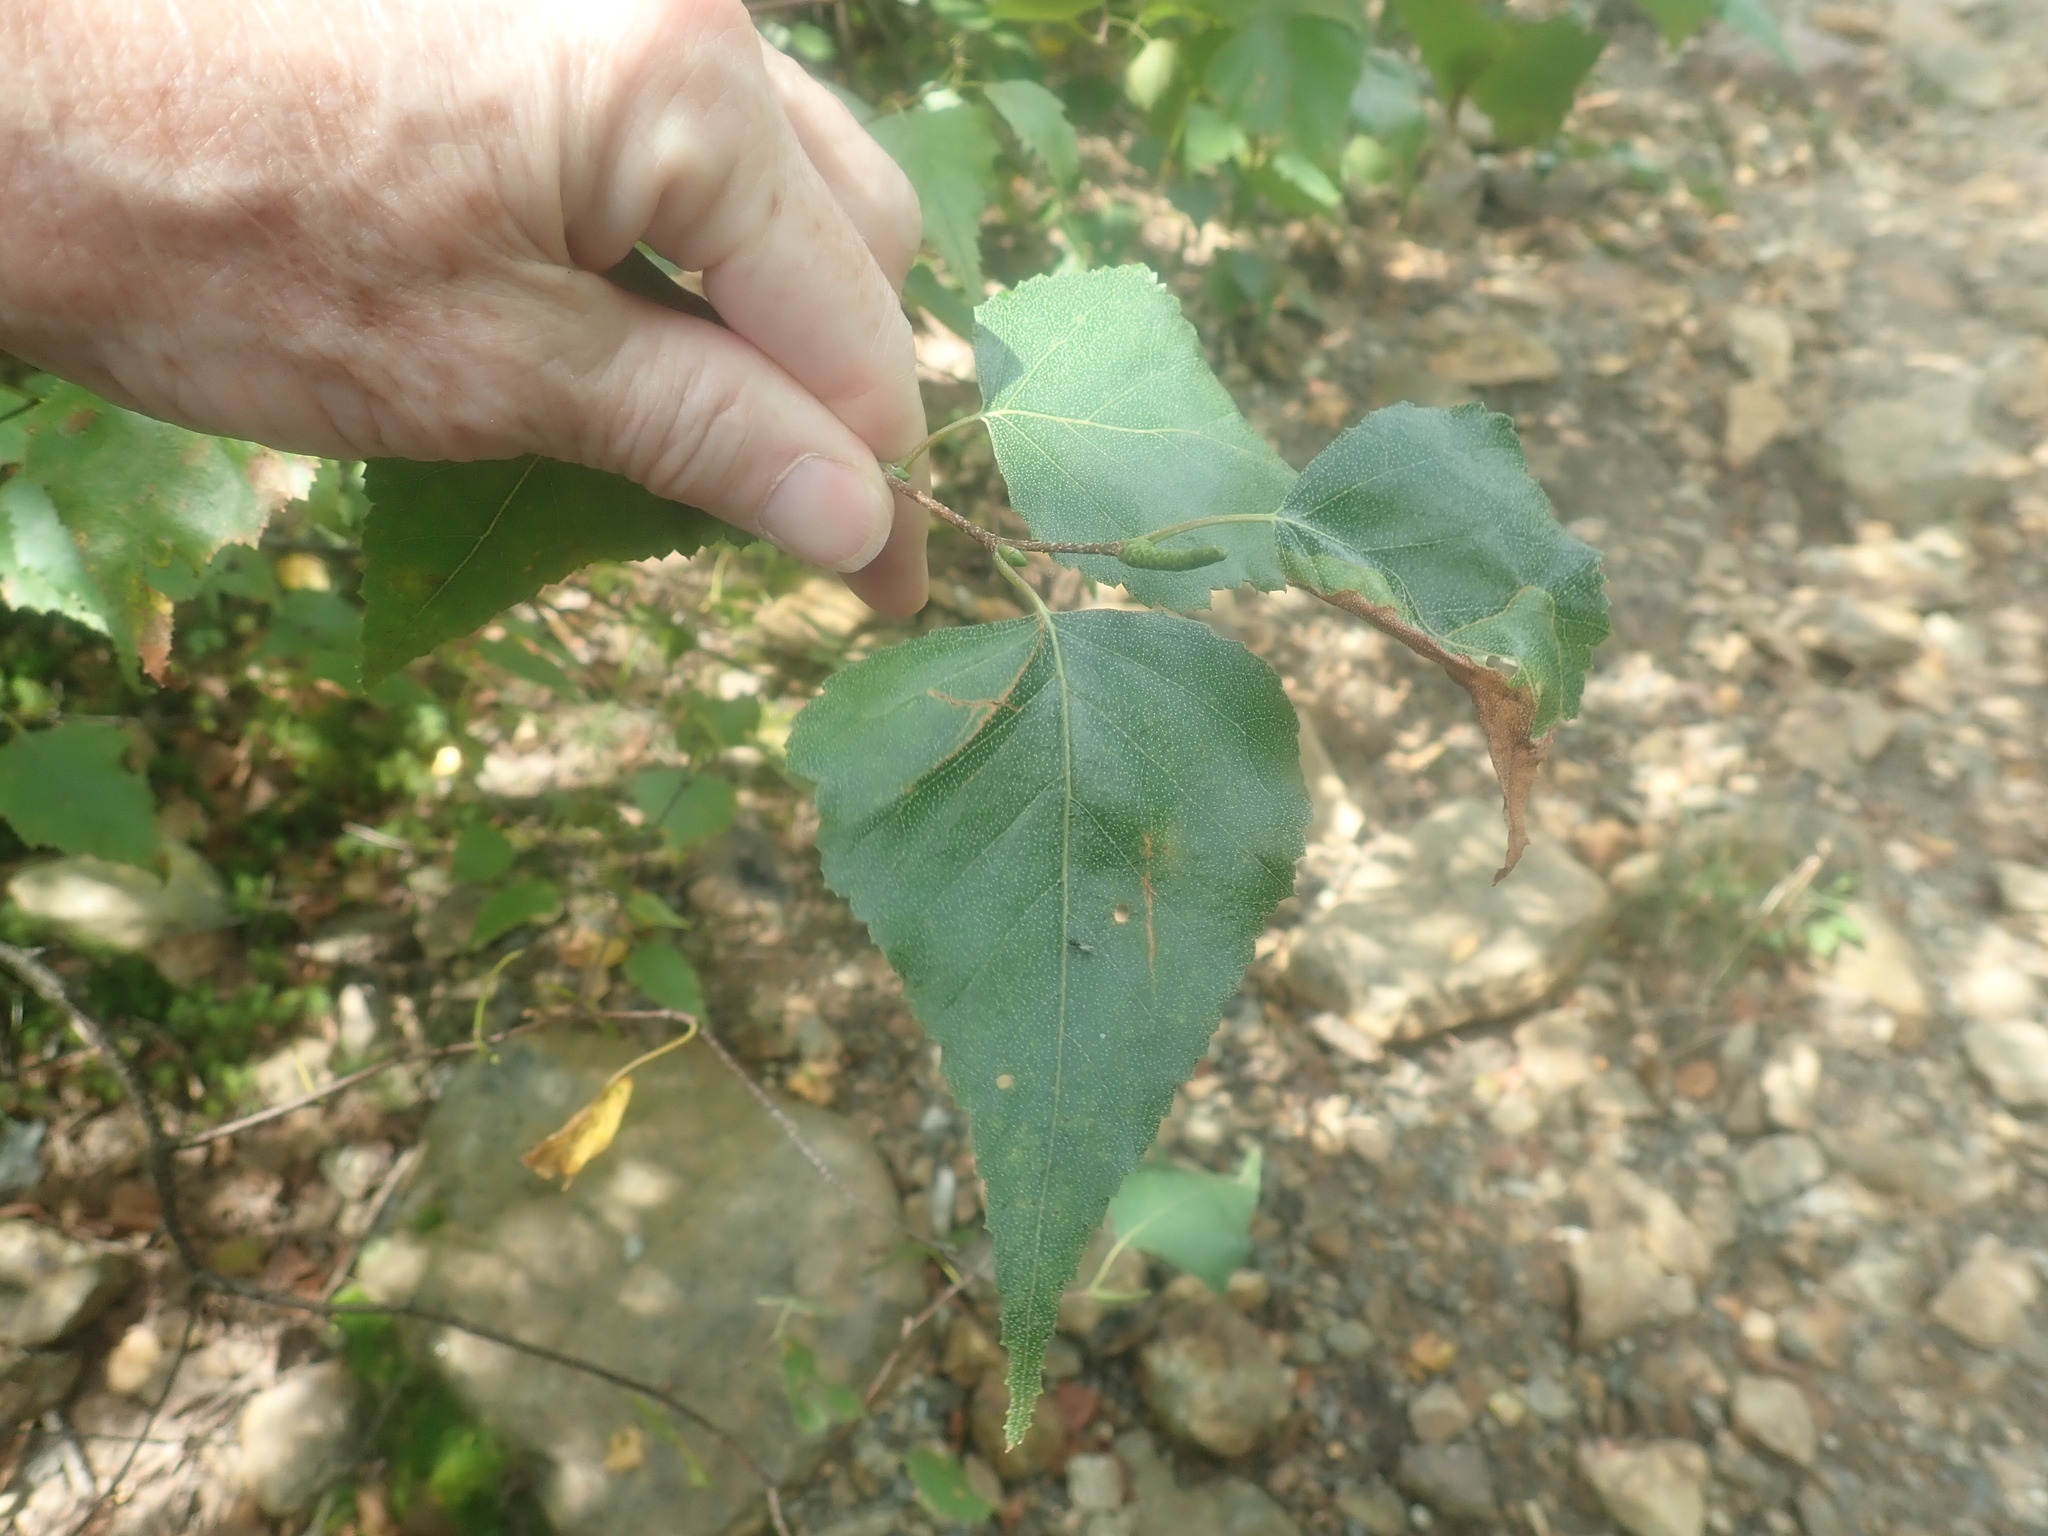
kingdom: Plantae
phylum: Tracheophyta
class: Magnoliopsida
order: Fagales
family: Betulaceae
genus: Betula
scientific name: Betula populifolia
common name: Fire birch
